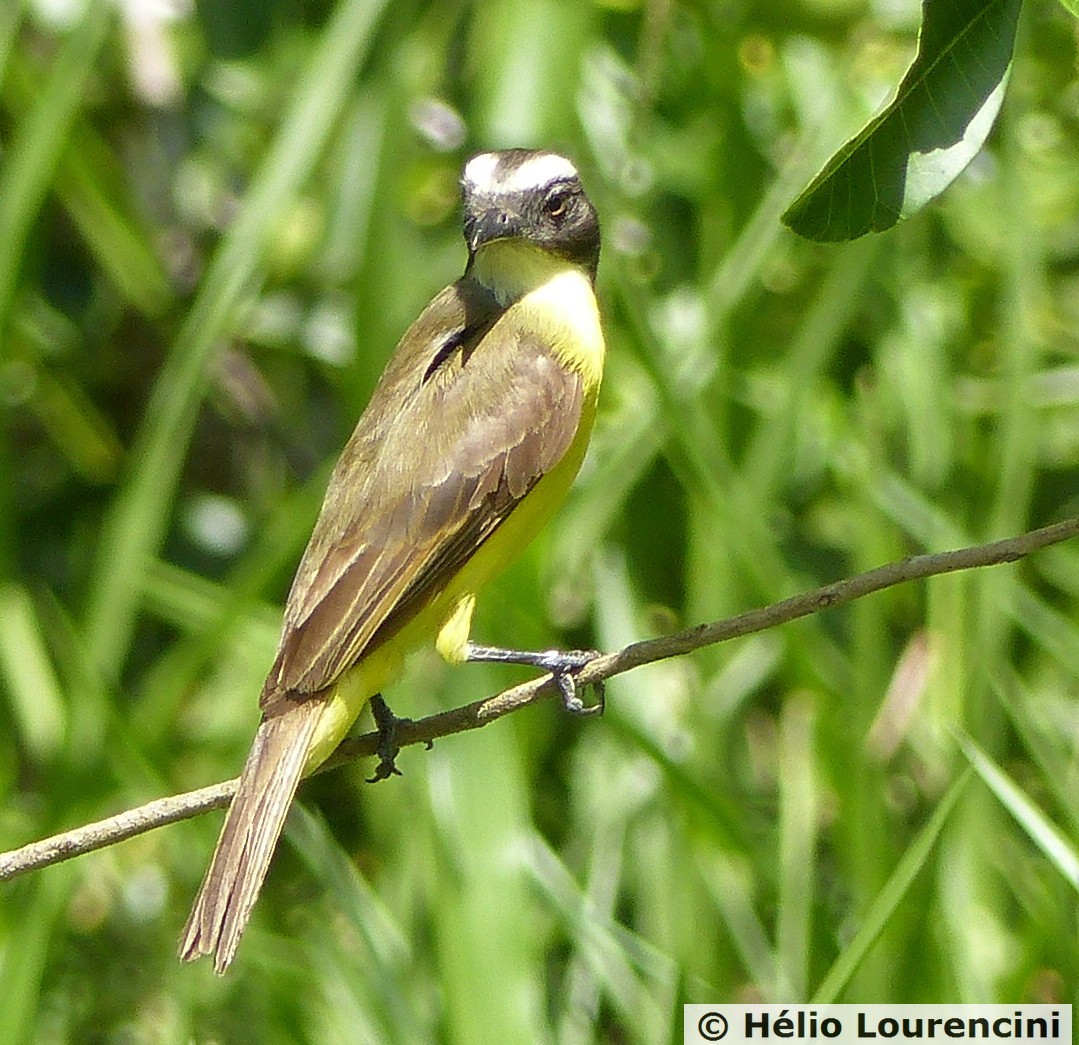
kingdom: Animalia
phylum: Chordata
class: Aves
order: Passeriformes
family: Tyrannidae
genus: Myiozetetes
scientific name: Myiozetetes similis
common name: Social flycatcher
